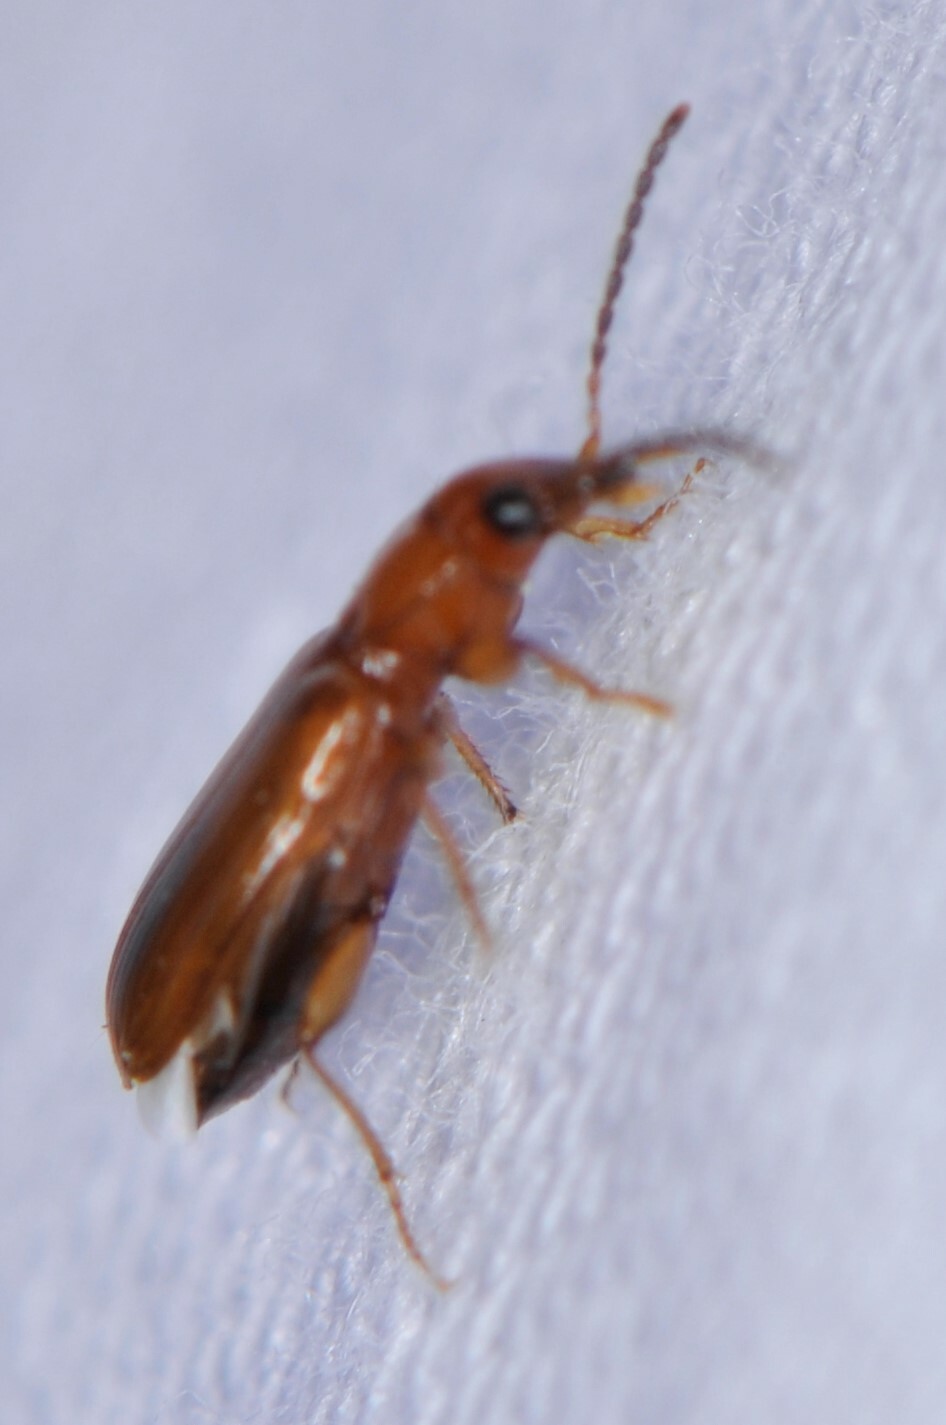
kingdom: Animalia
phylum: Arthropoda
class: Insecta
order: Coleoptera
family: Carabidae
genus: Bradycellus
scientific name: Bradycellus
